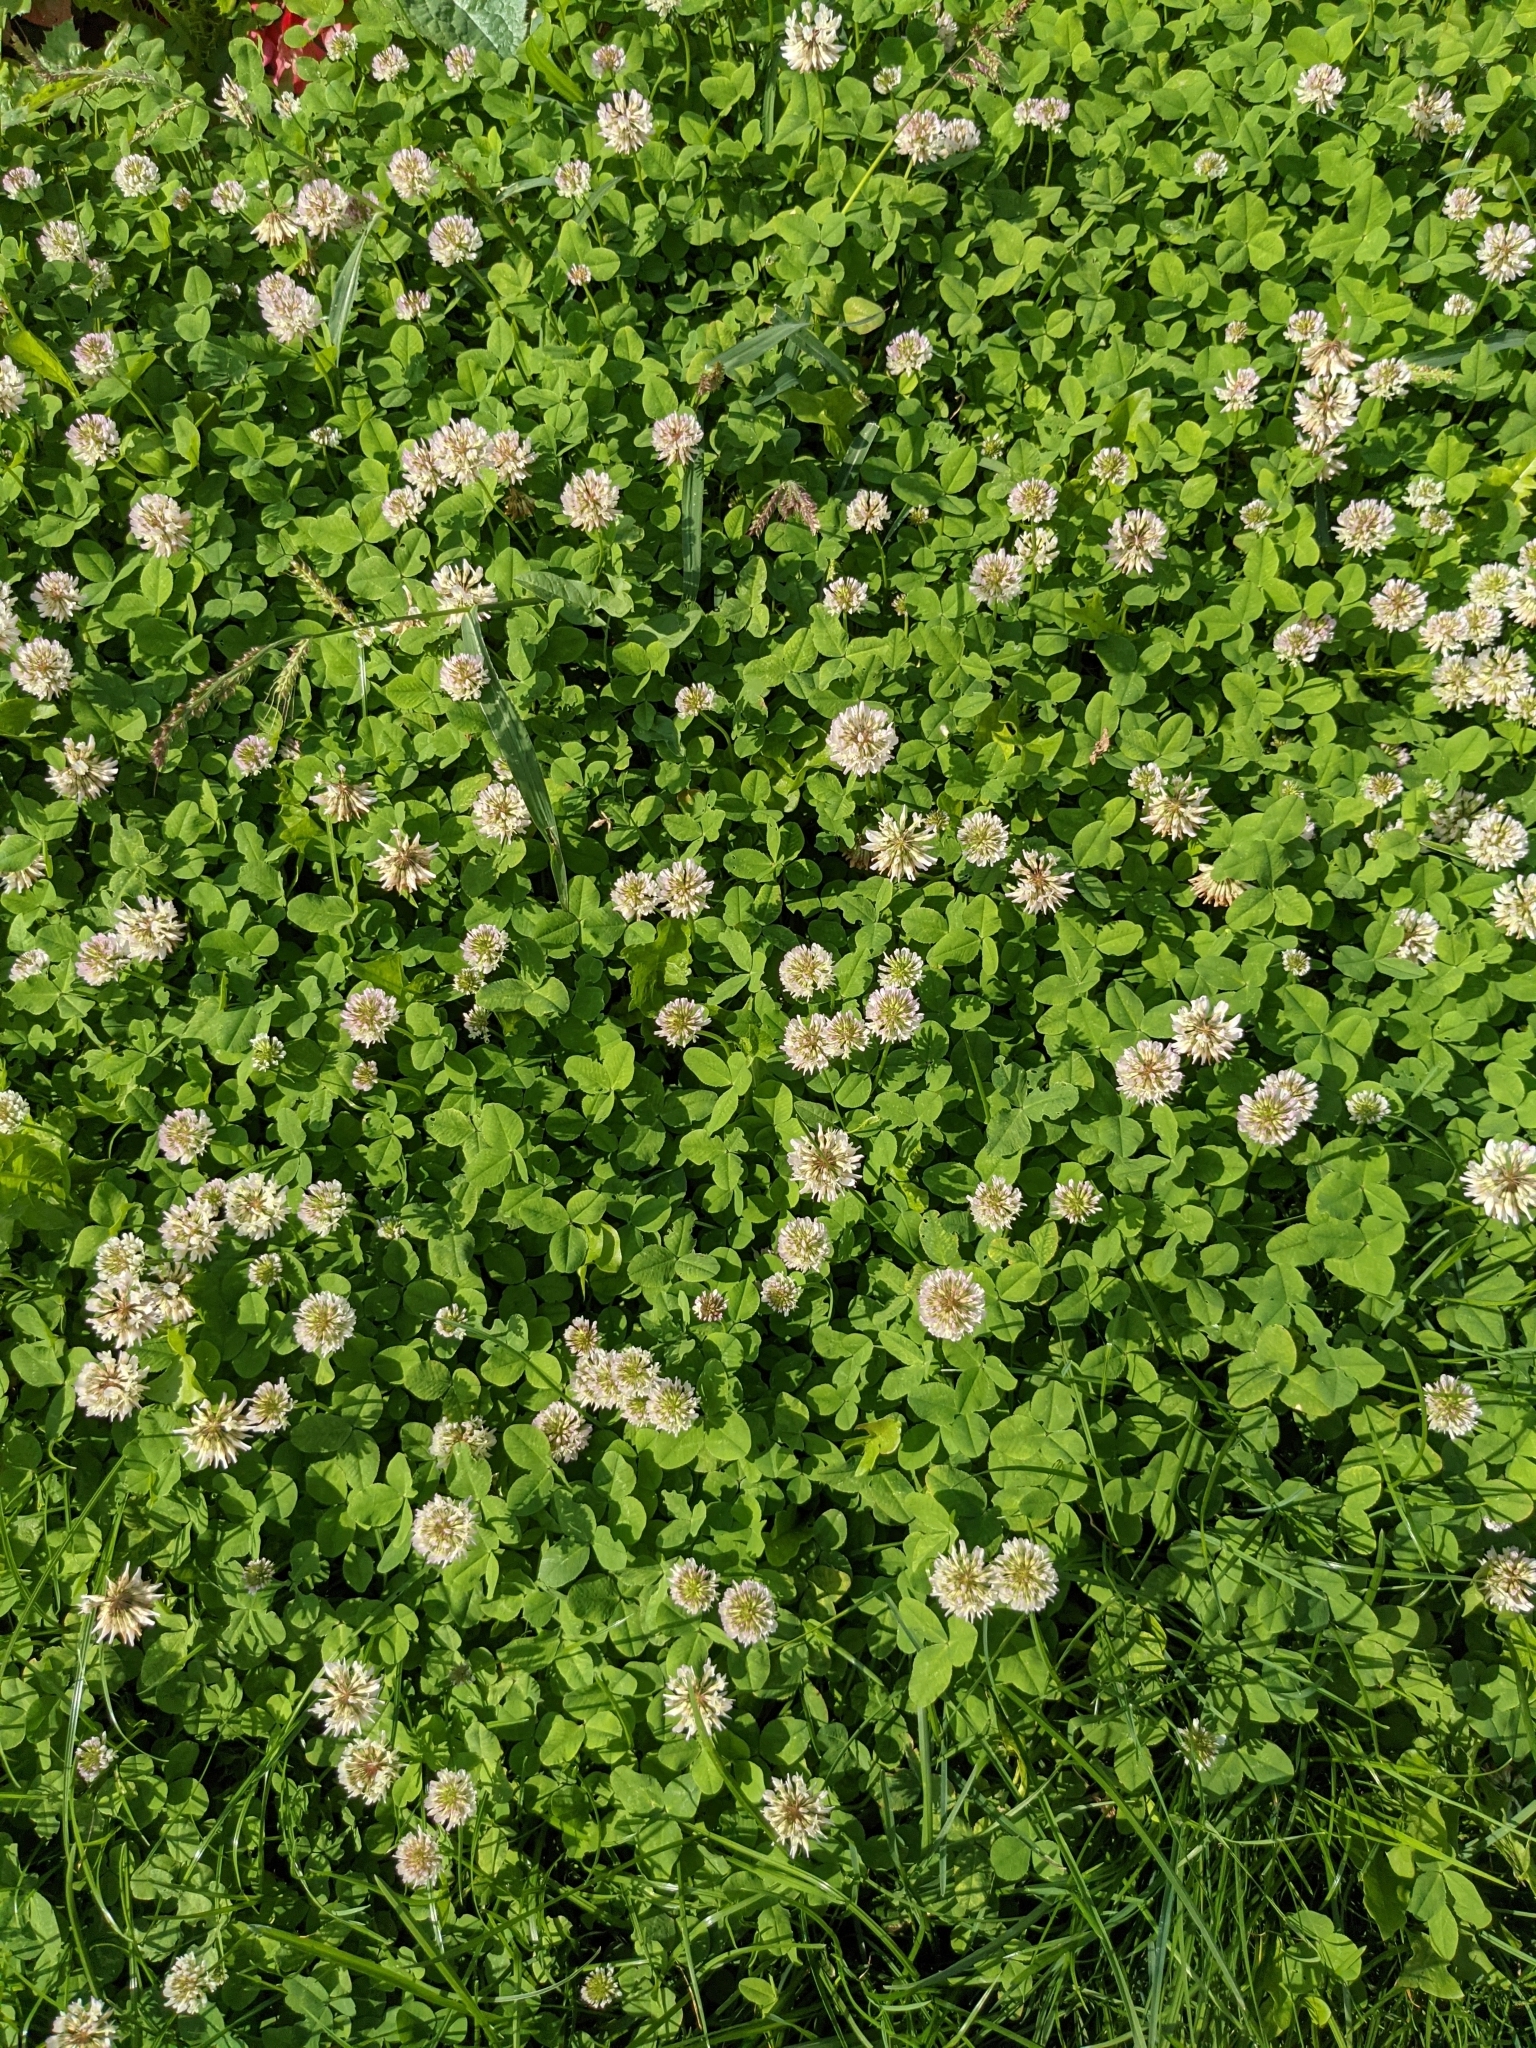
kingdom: Plantae
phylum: Tracheophyta
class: Magnoliopsida
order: Fabales
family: Fabaceae
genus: Trifolium
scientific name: Trifolium repens
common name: White clover
